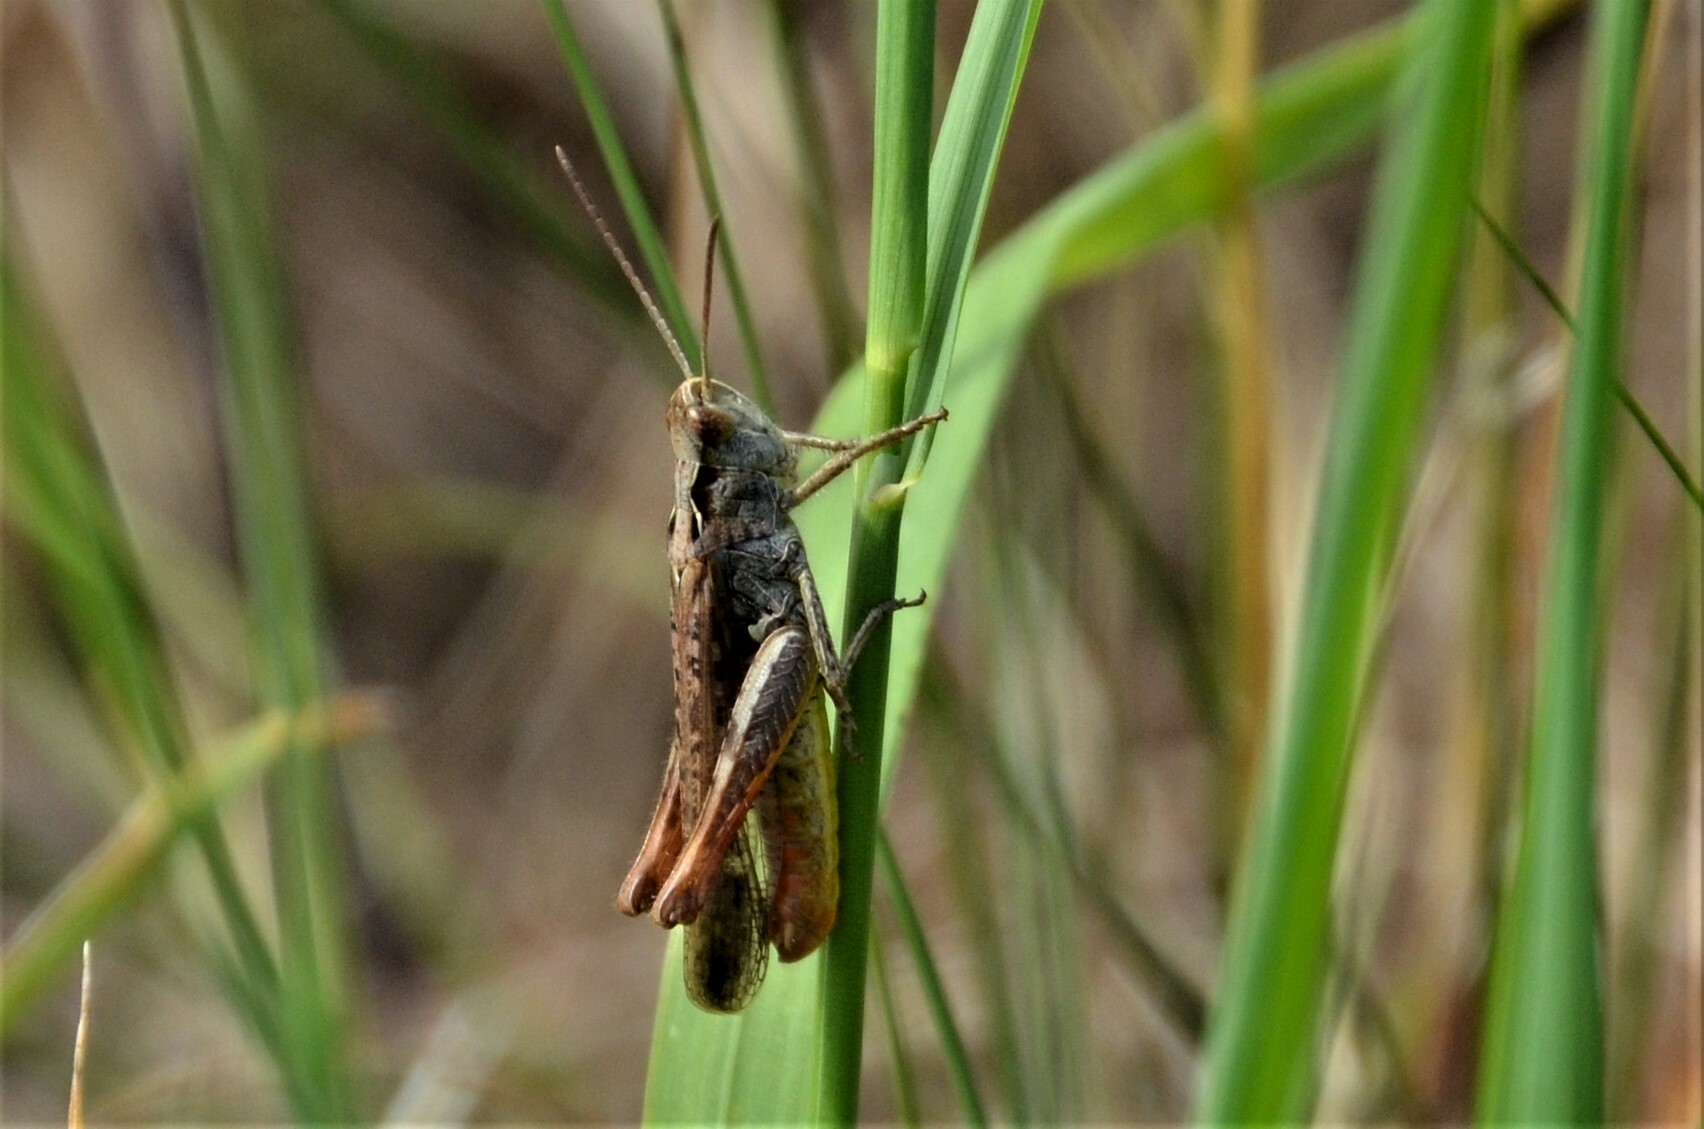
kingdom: Animalia
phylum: Arthropoda
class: Insecta
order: Orthoptera
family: Acrididae
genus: Chorthippus
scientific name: Chorthippus biguttulus
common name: Bow-winged grasshopper
